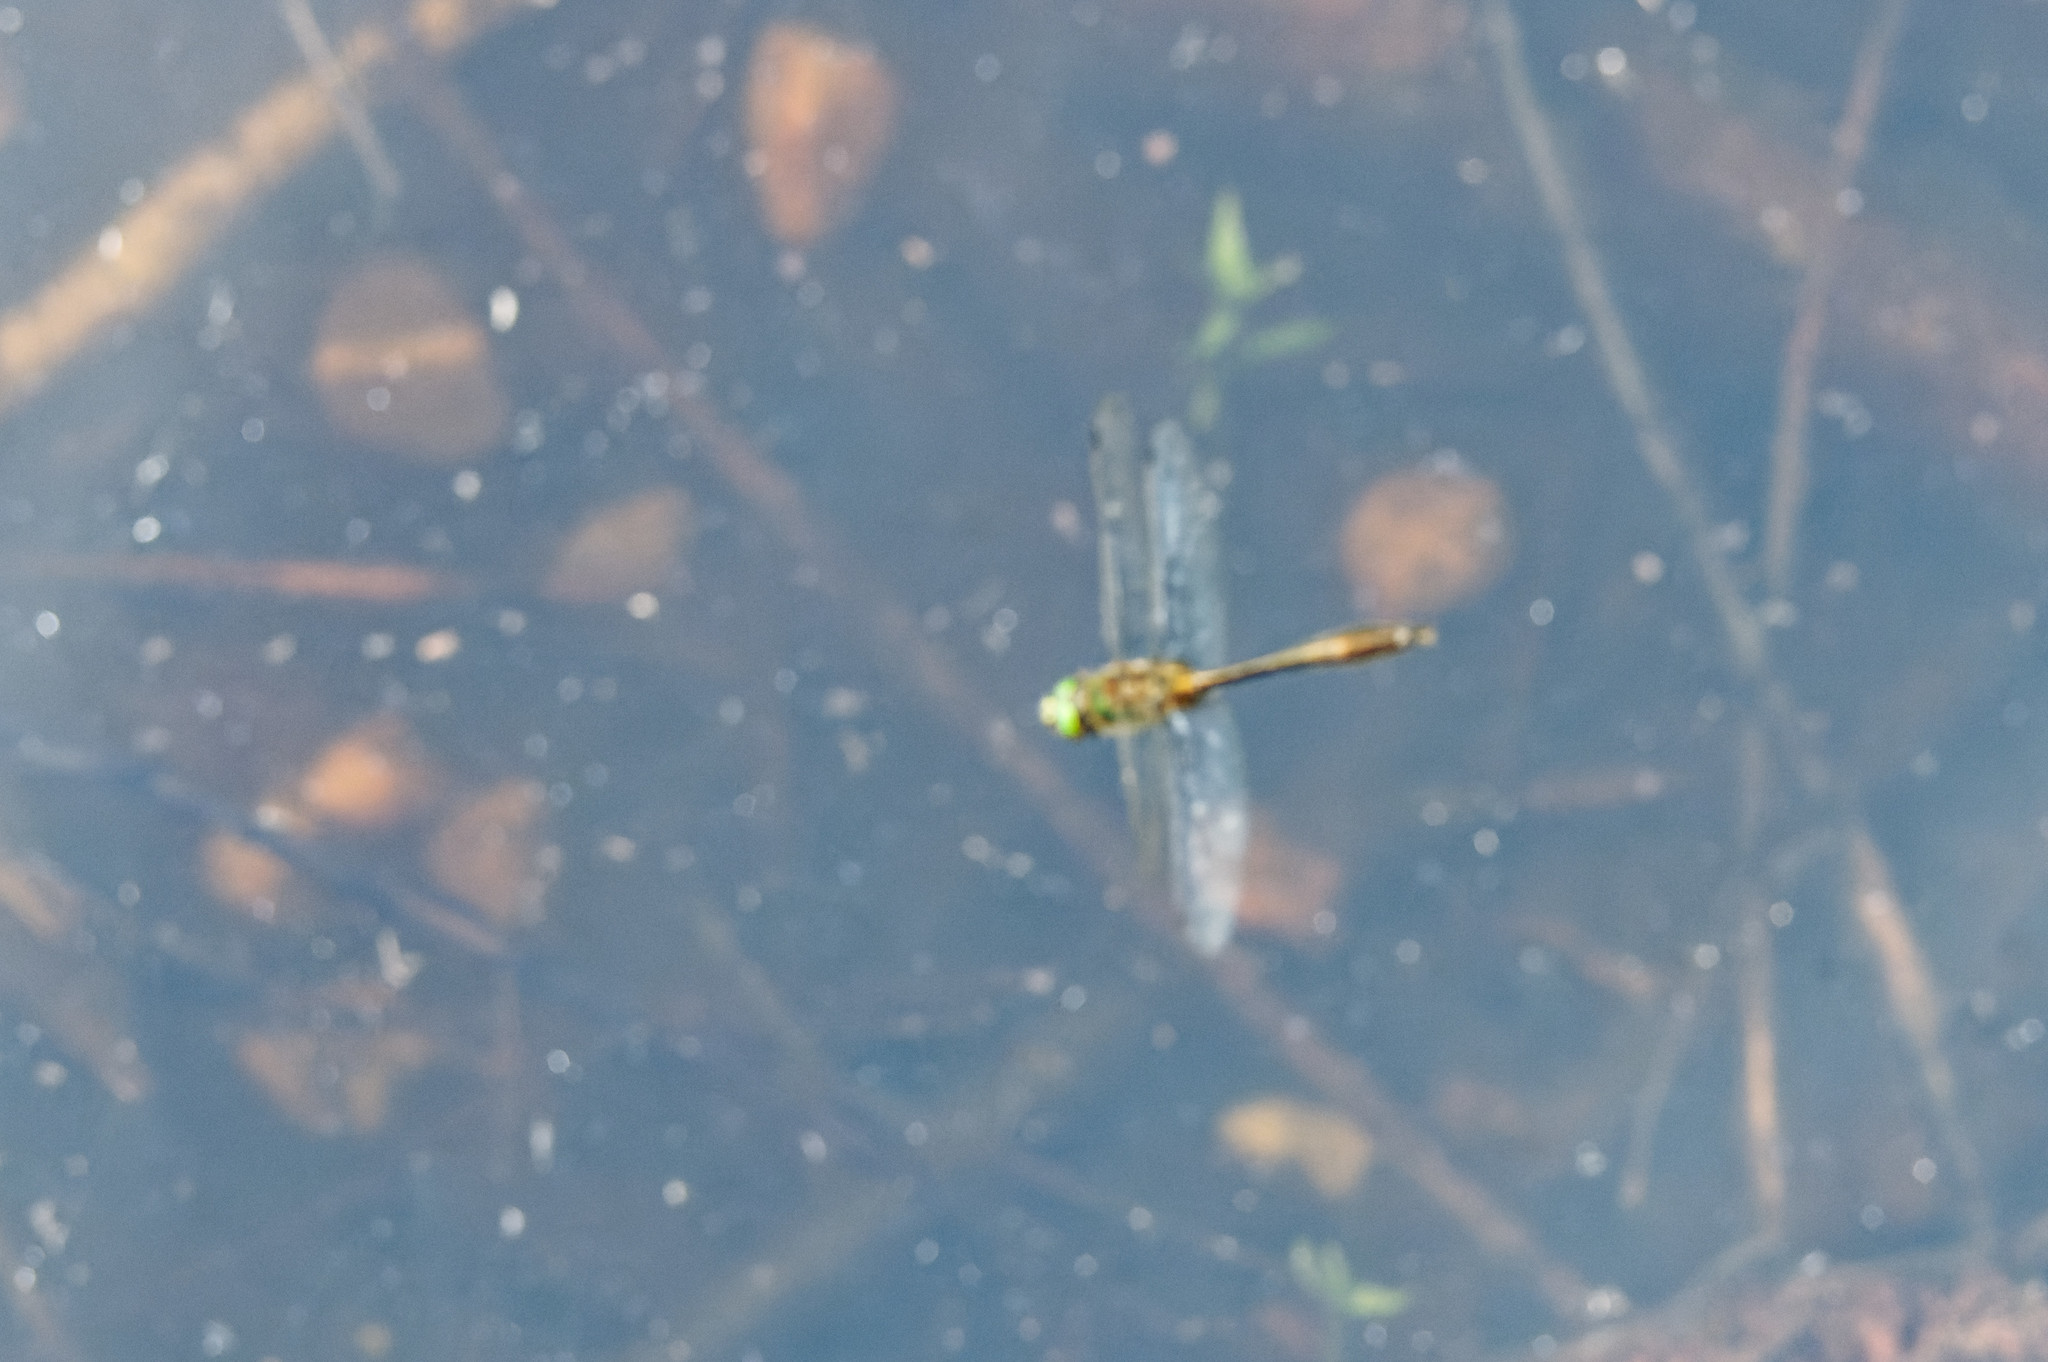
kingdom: Animalia
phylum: Arthropoda
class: Insecta
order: Odonata
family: Corduliidae
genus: Cordulia
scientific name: Cordulia aenea
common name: Downy emerald
